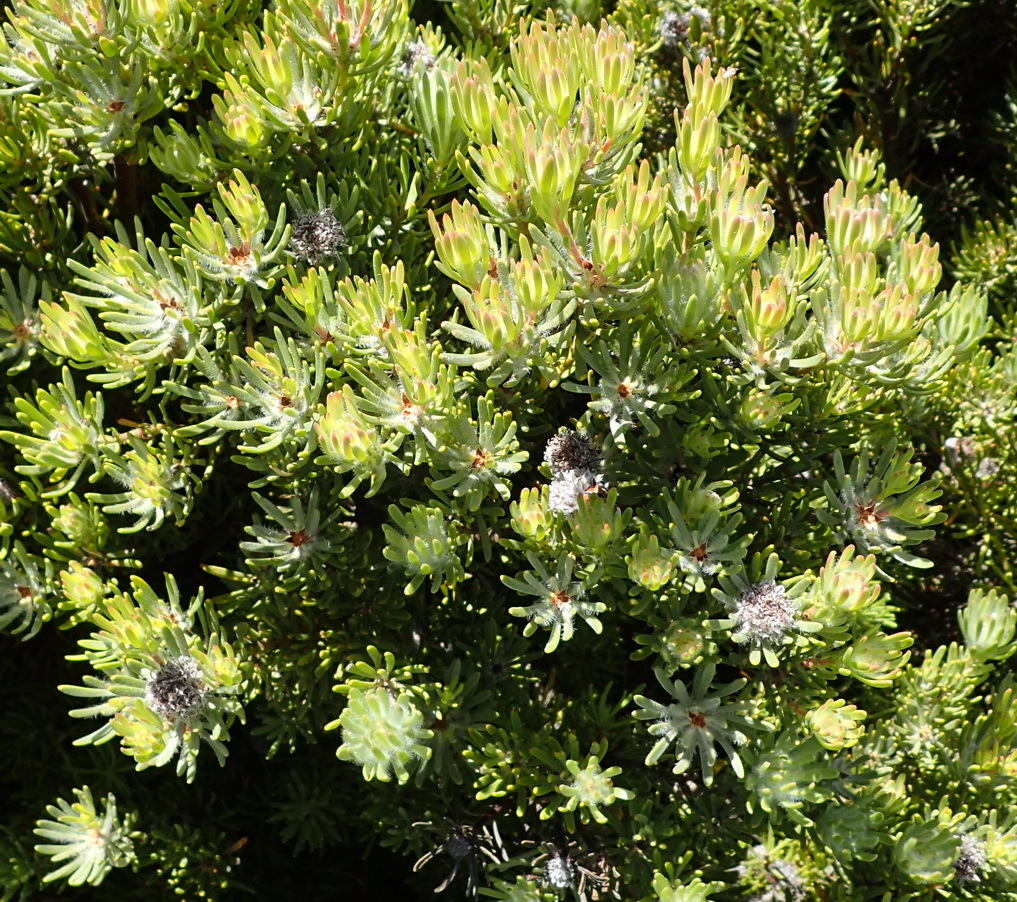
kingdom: Plantae
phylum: Tracheophyta
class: Magnoliopsida
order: Proteales
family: Proteaceae
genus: Leucadendron
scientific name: Leucadendron dregei
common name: Summit conebush
